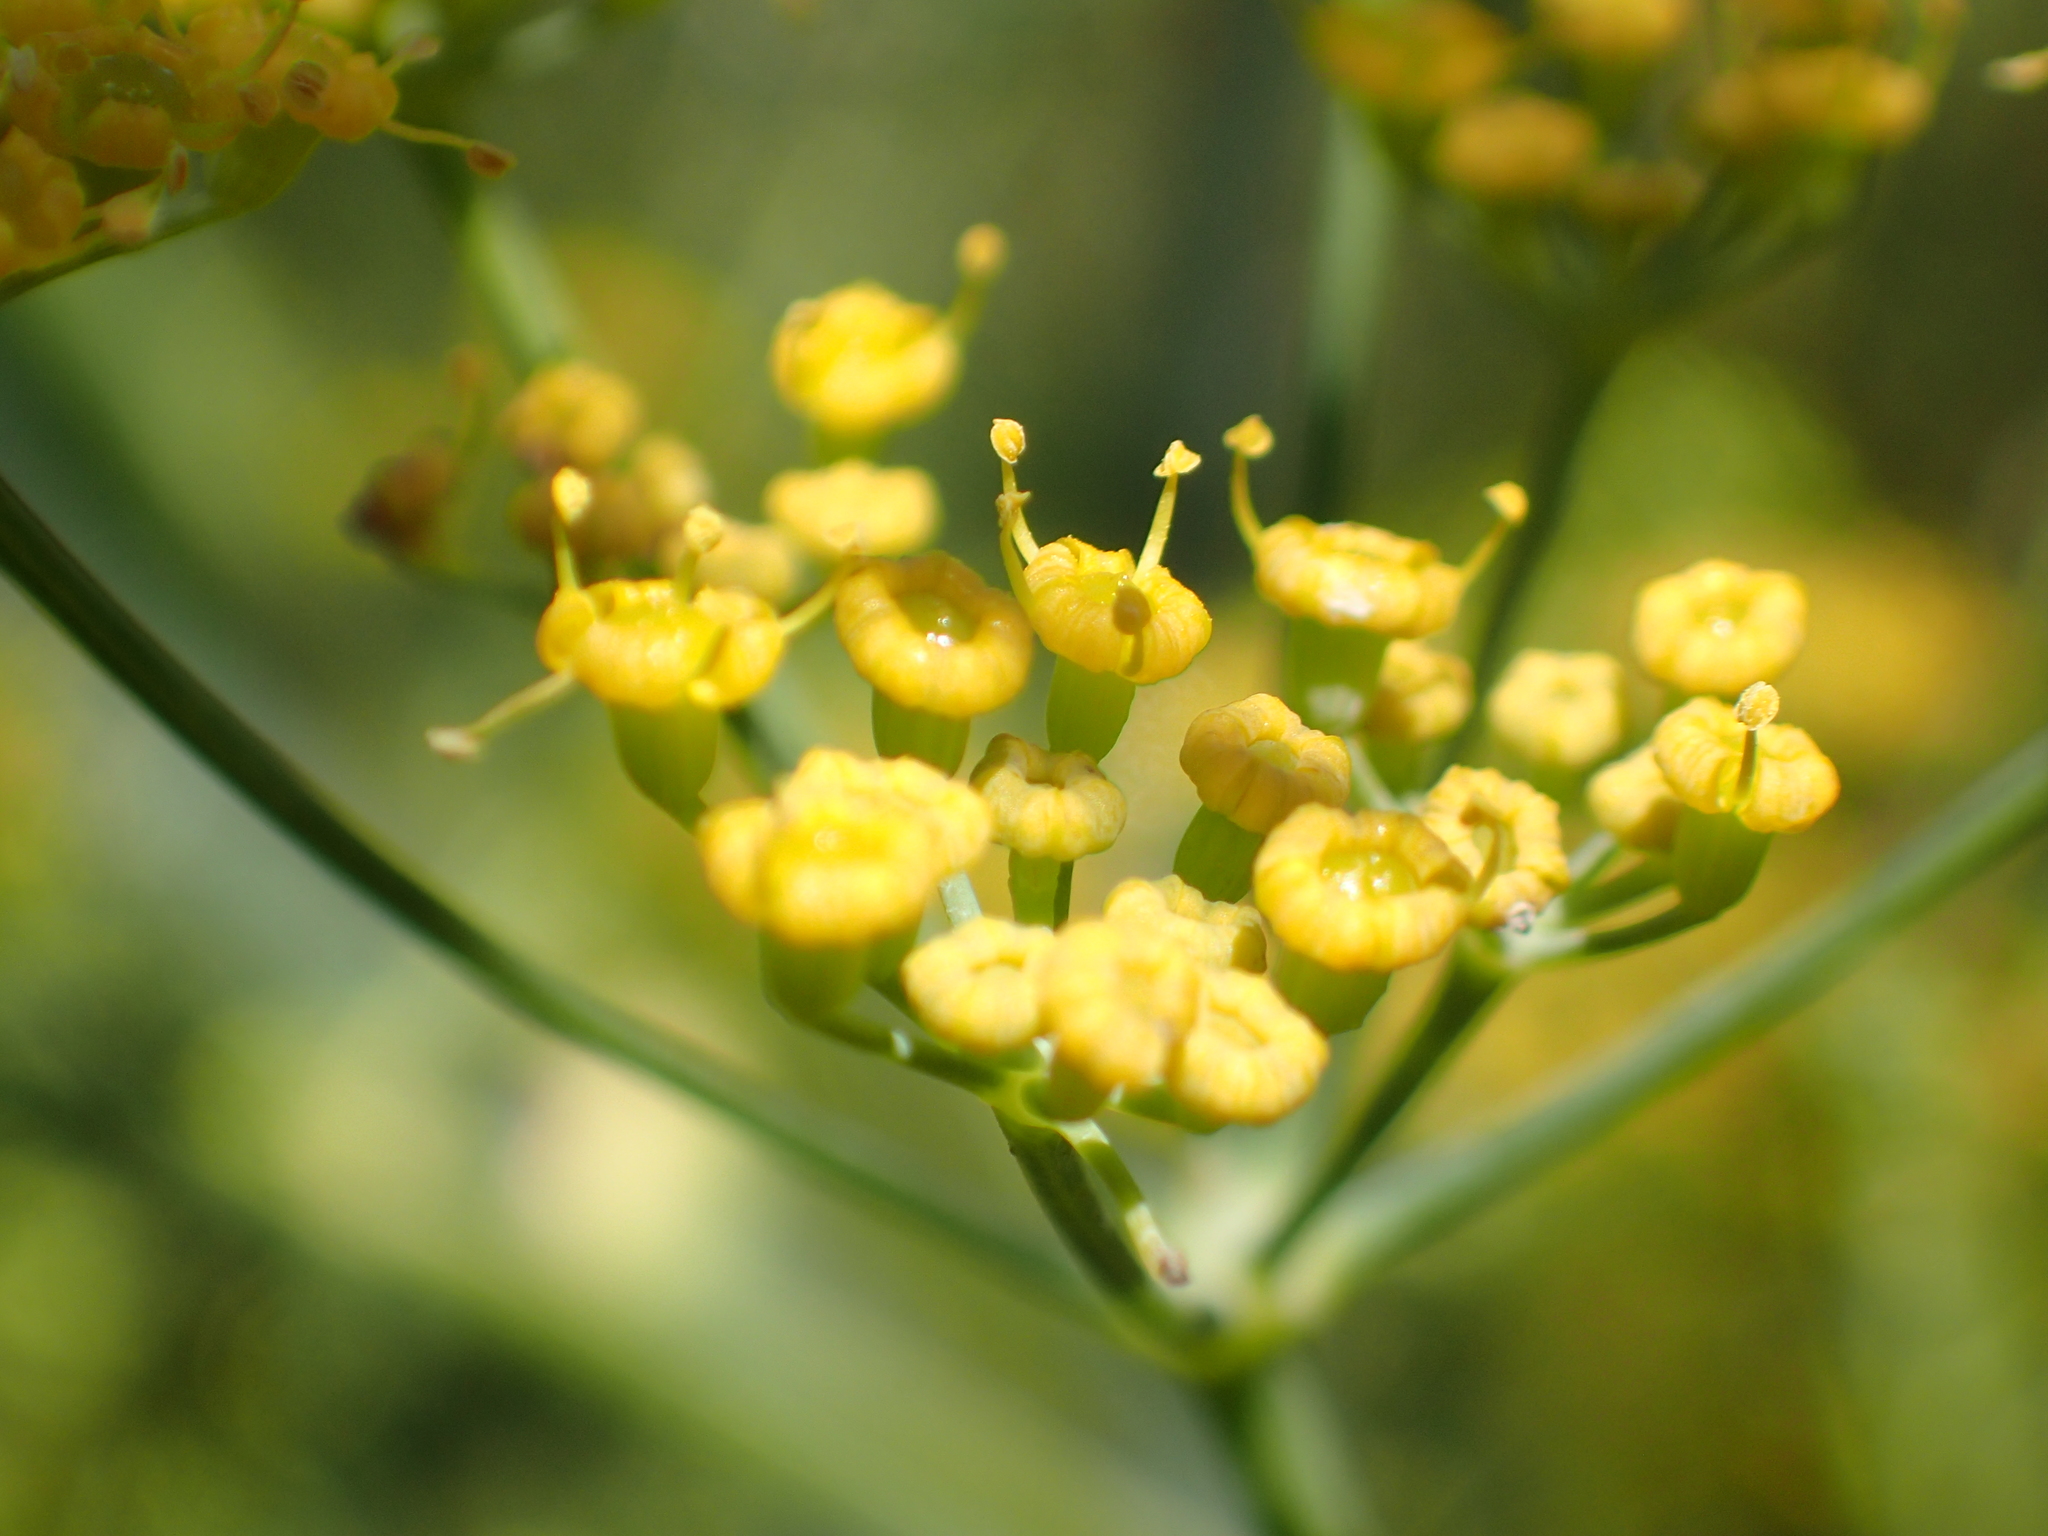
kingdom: Plantae
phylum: Tracheophyta
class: Magnoliopsida
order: Apiales
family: Apiaceae
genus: Foeniculum
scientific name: Foeniculum vulgare
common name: Fennel
